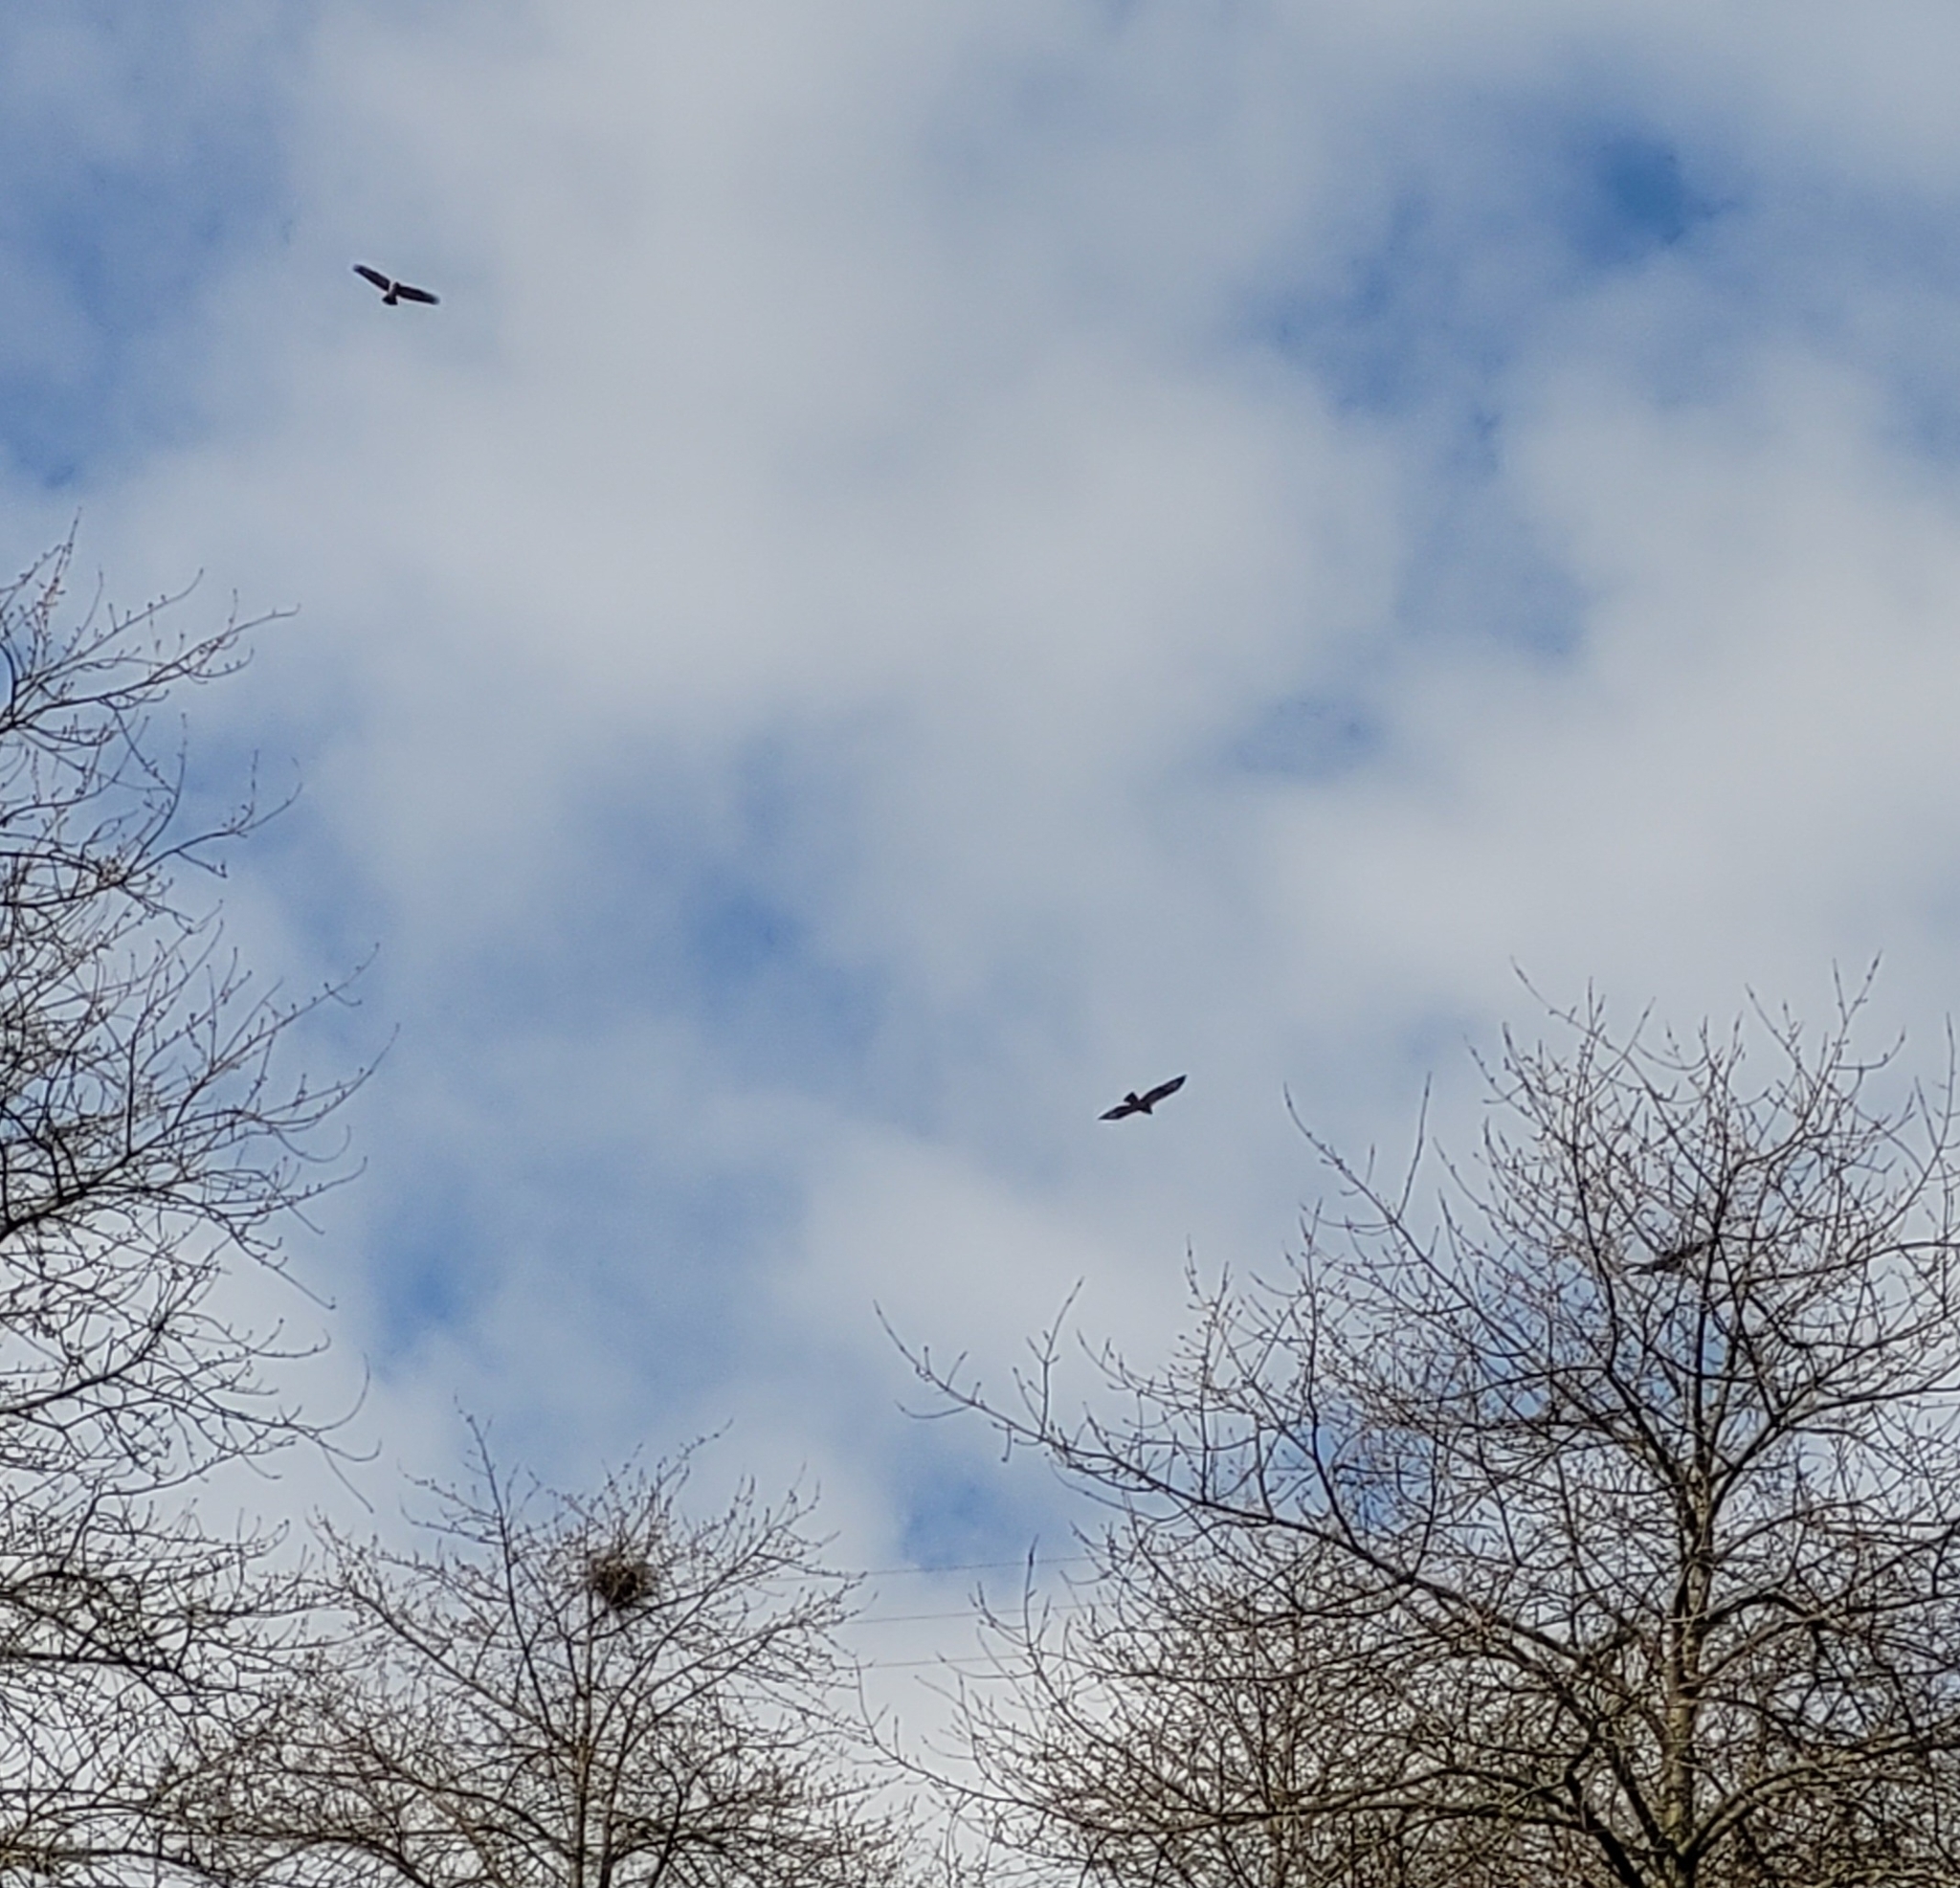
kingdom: Animalia
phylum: Chordata
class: Aves
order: Accipitriformes
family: Accipitridae
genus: Buteo
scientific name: Buteo buteo
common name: Common buzzard
